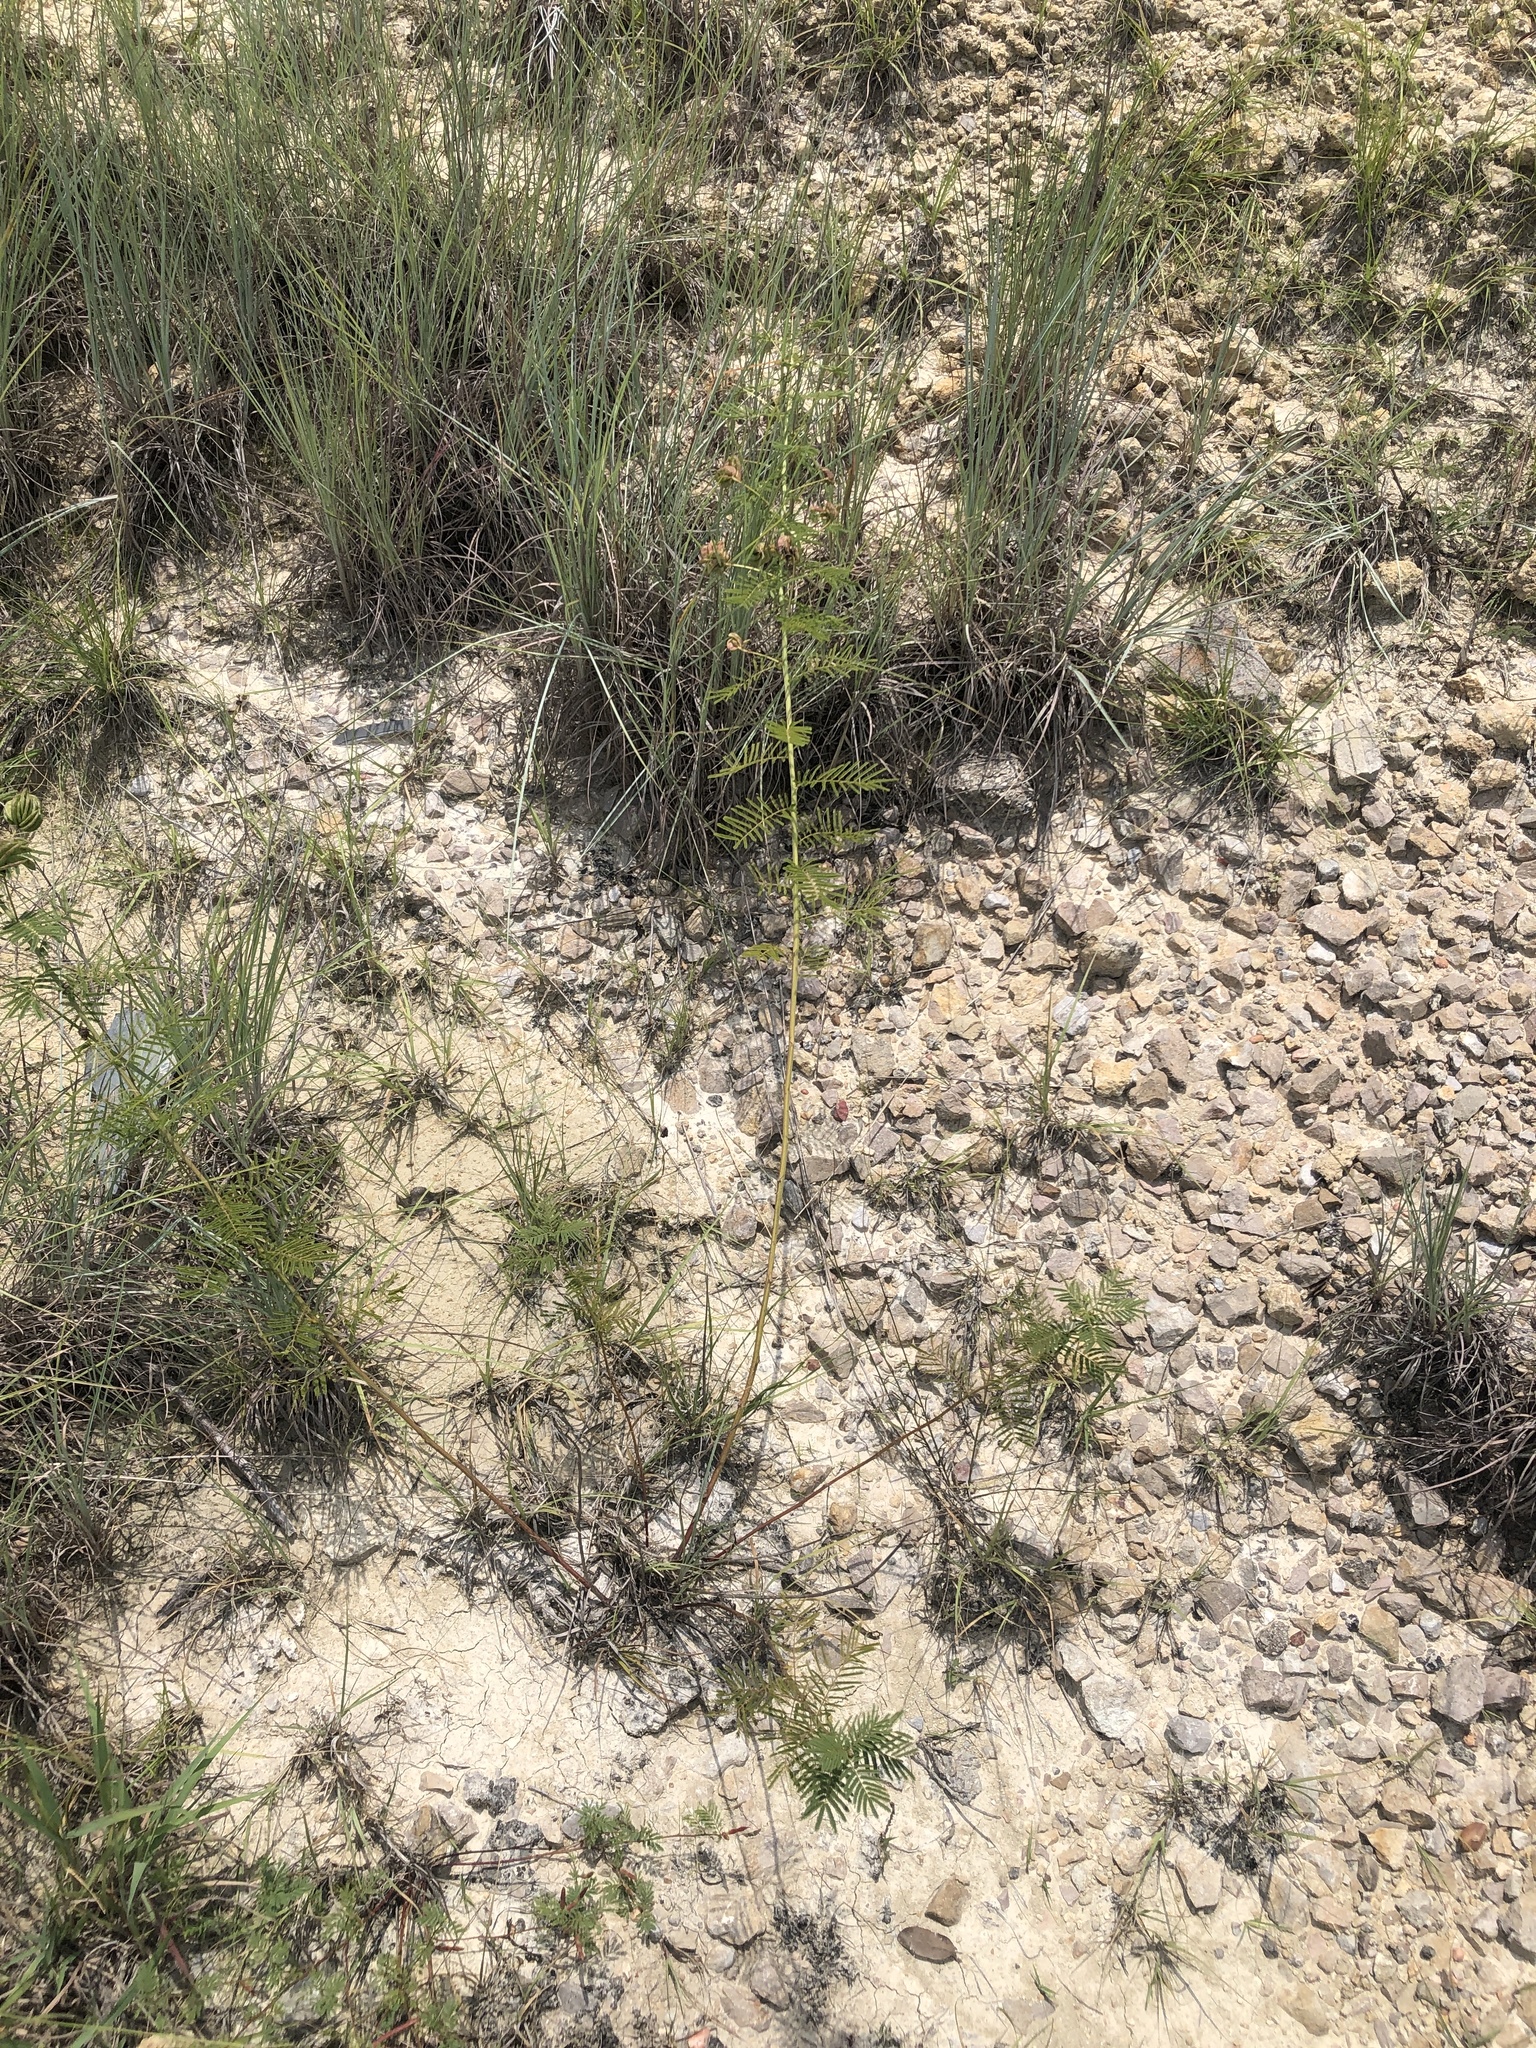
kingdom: Plantae
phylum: Tracheophyta
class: Magnoliopsida
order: Fabales
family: Fabaceae
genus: Desmanthus
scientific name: Desmanthus illinoensis
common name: Illinois bundle-flower
